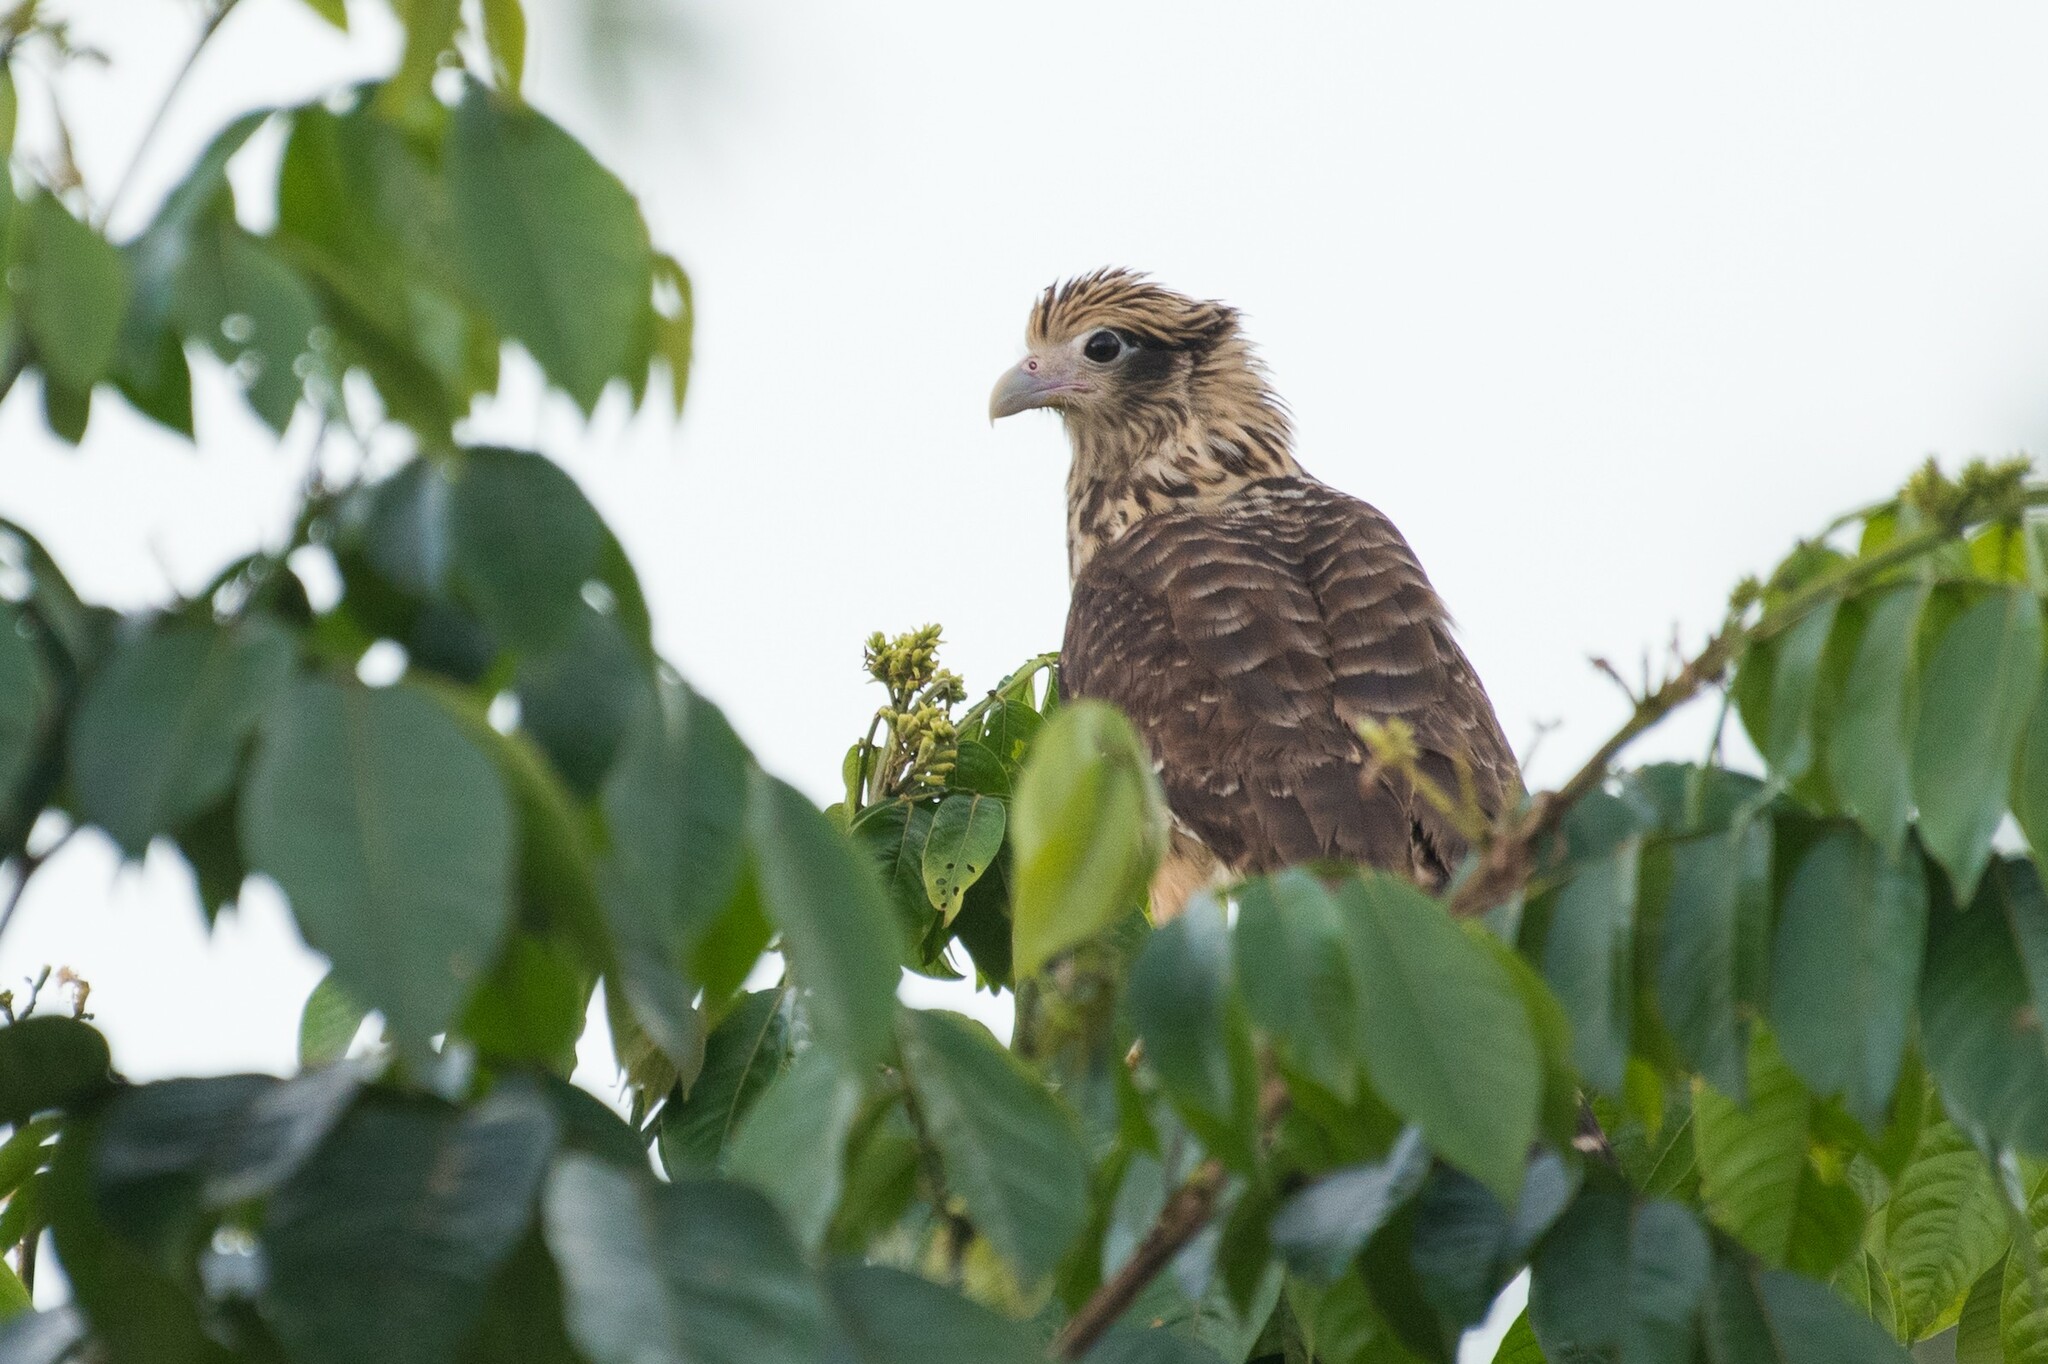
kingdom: Animalia
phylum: Chordata
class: Aves
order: Falconiformes
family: Falconidae
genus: Daptrius
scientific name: Daptrius
